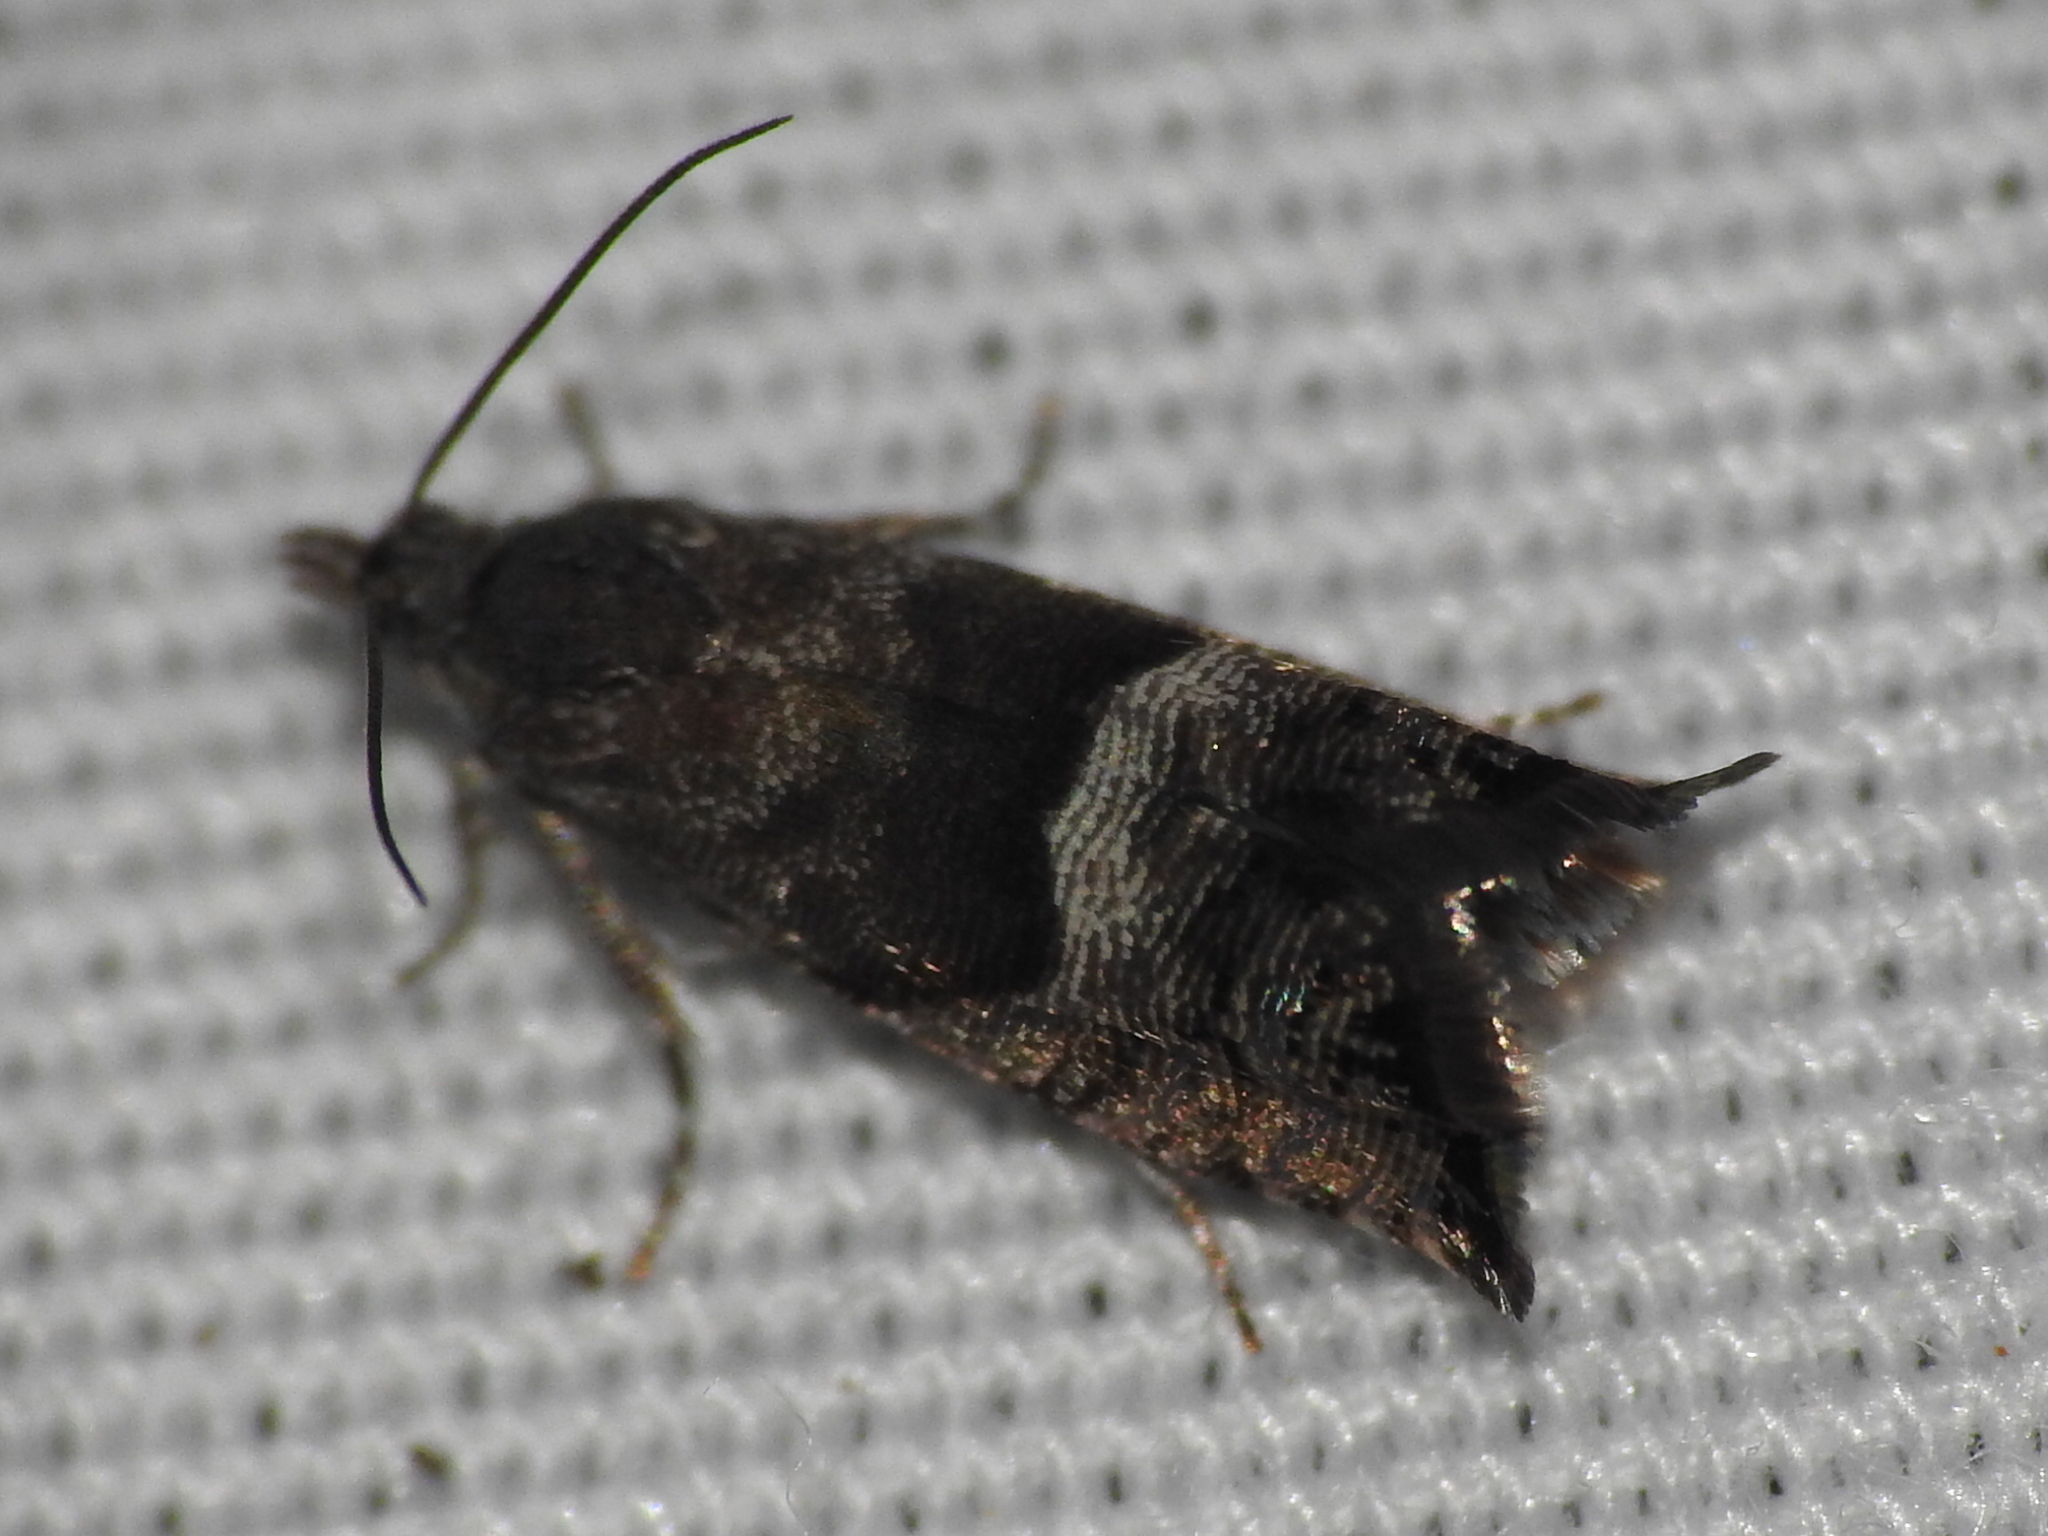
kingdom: Animalia
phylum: Arthropoda
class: Insecta
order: Lepidoptera
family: Tortricidae
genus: Sereda
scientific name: Sereda tautana
